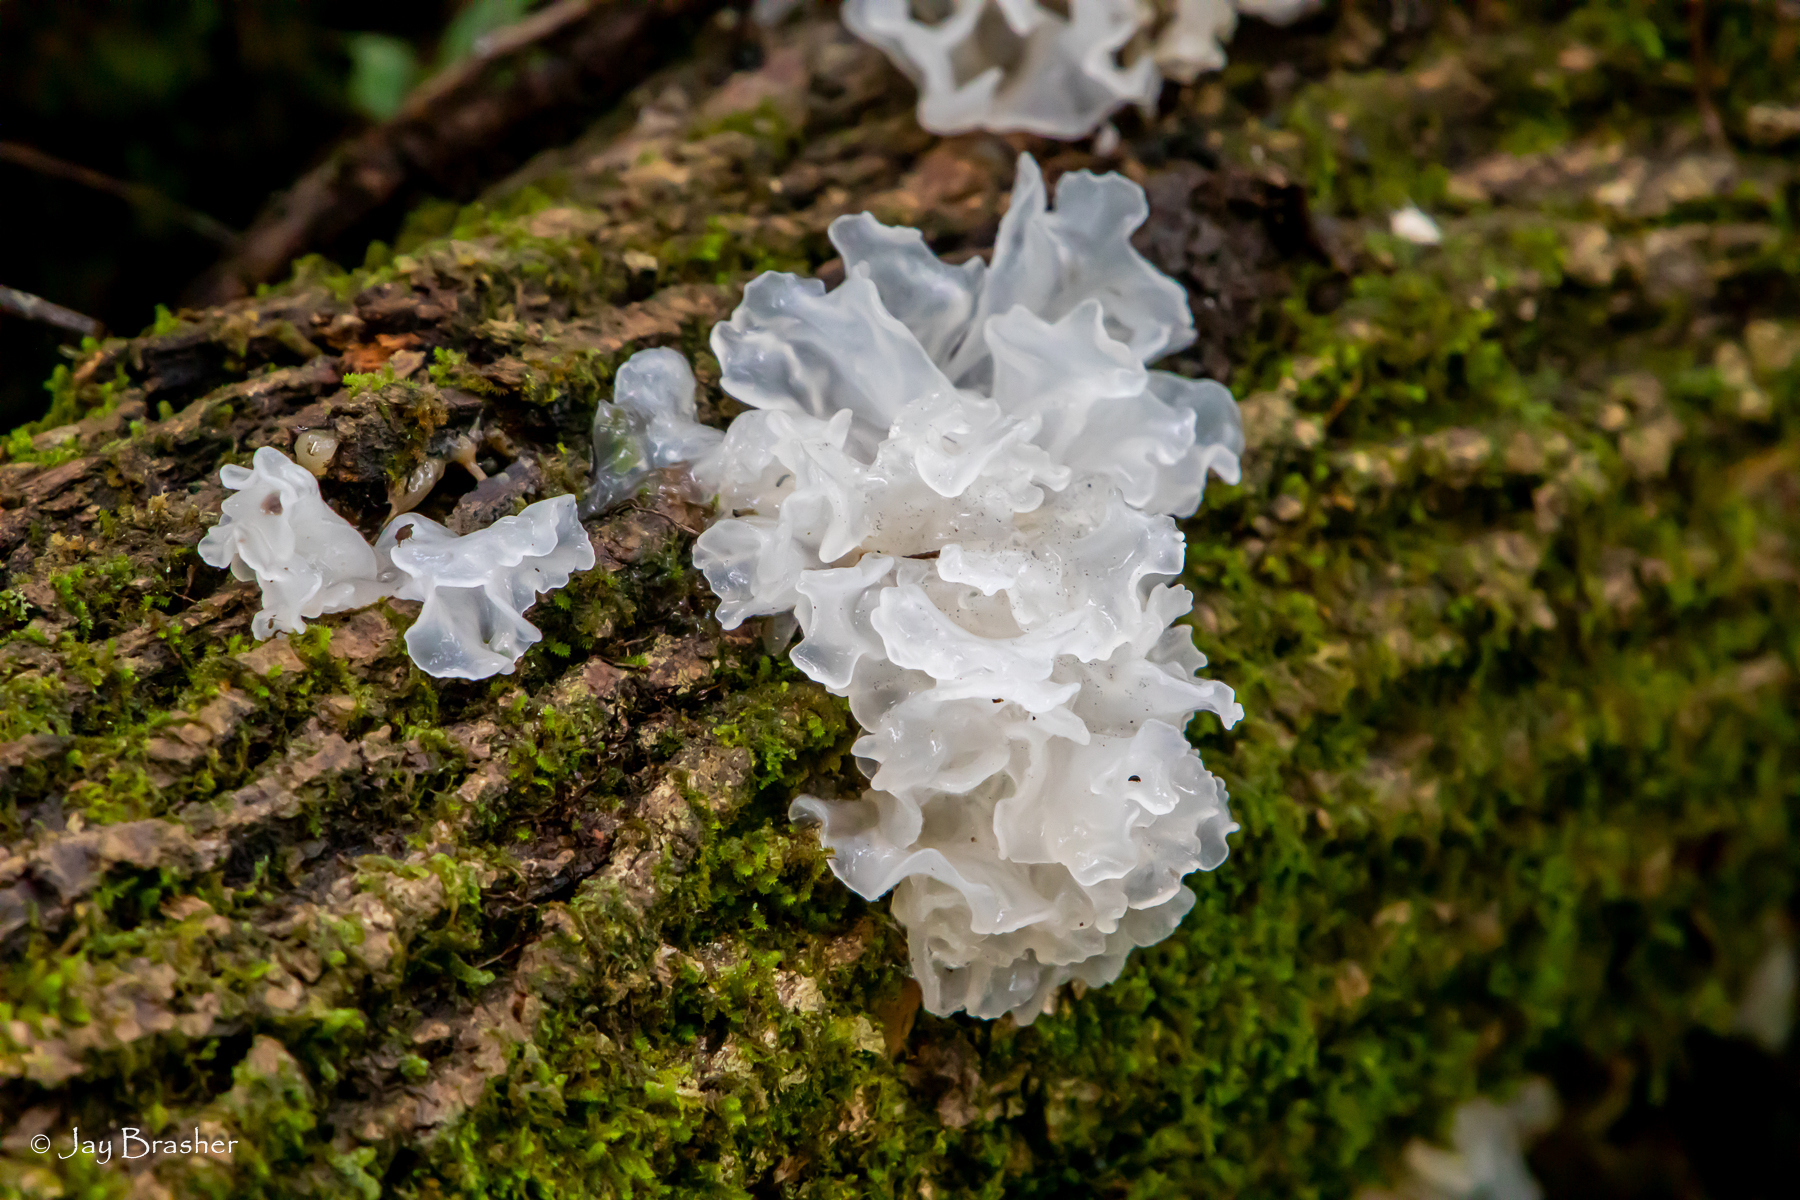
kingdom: Fungi
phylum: Basidiomycota
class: Tremellomycetes
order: Tremellales
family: Tremellaceae
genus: Tremella
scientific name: Tremella fuciformis
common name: Snow fungus
